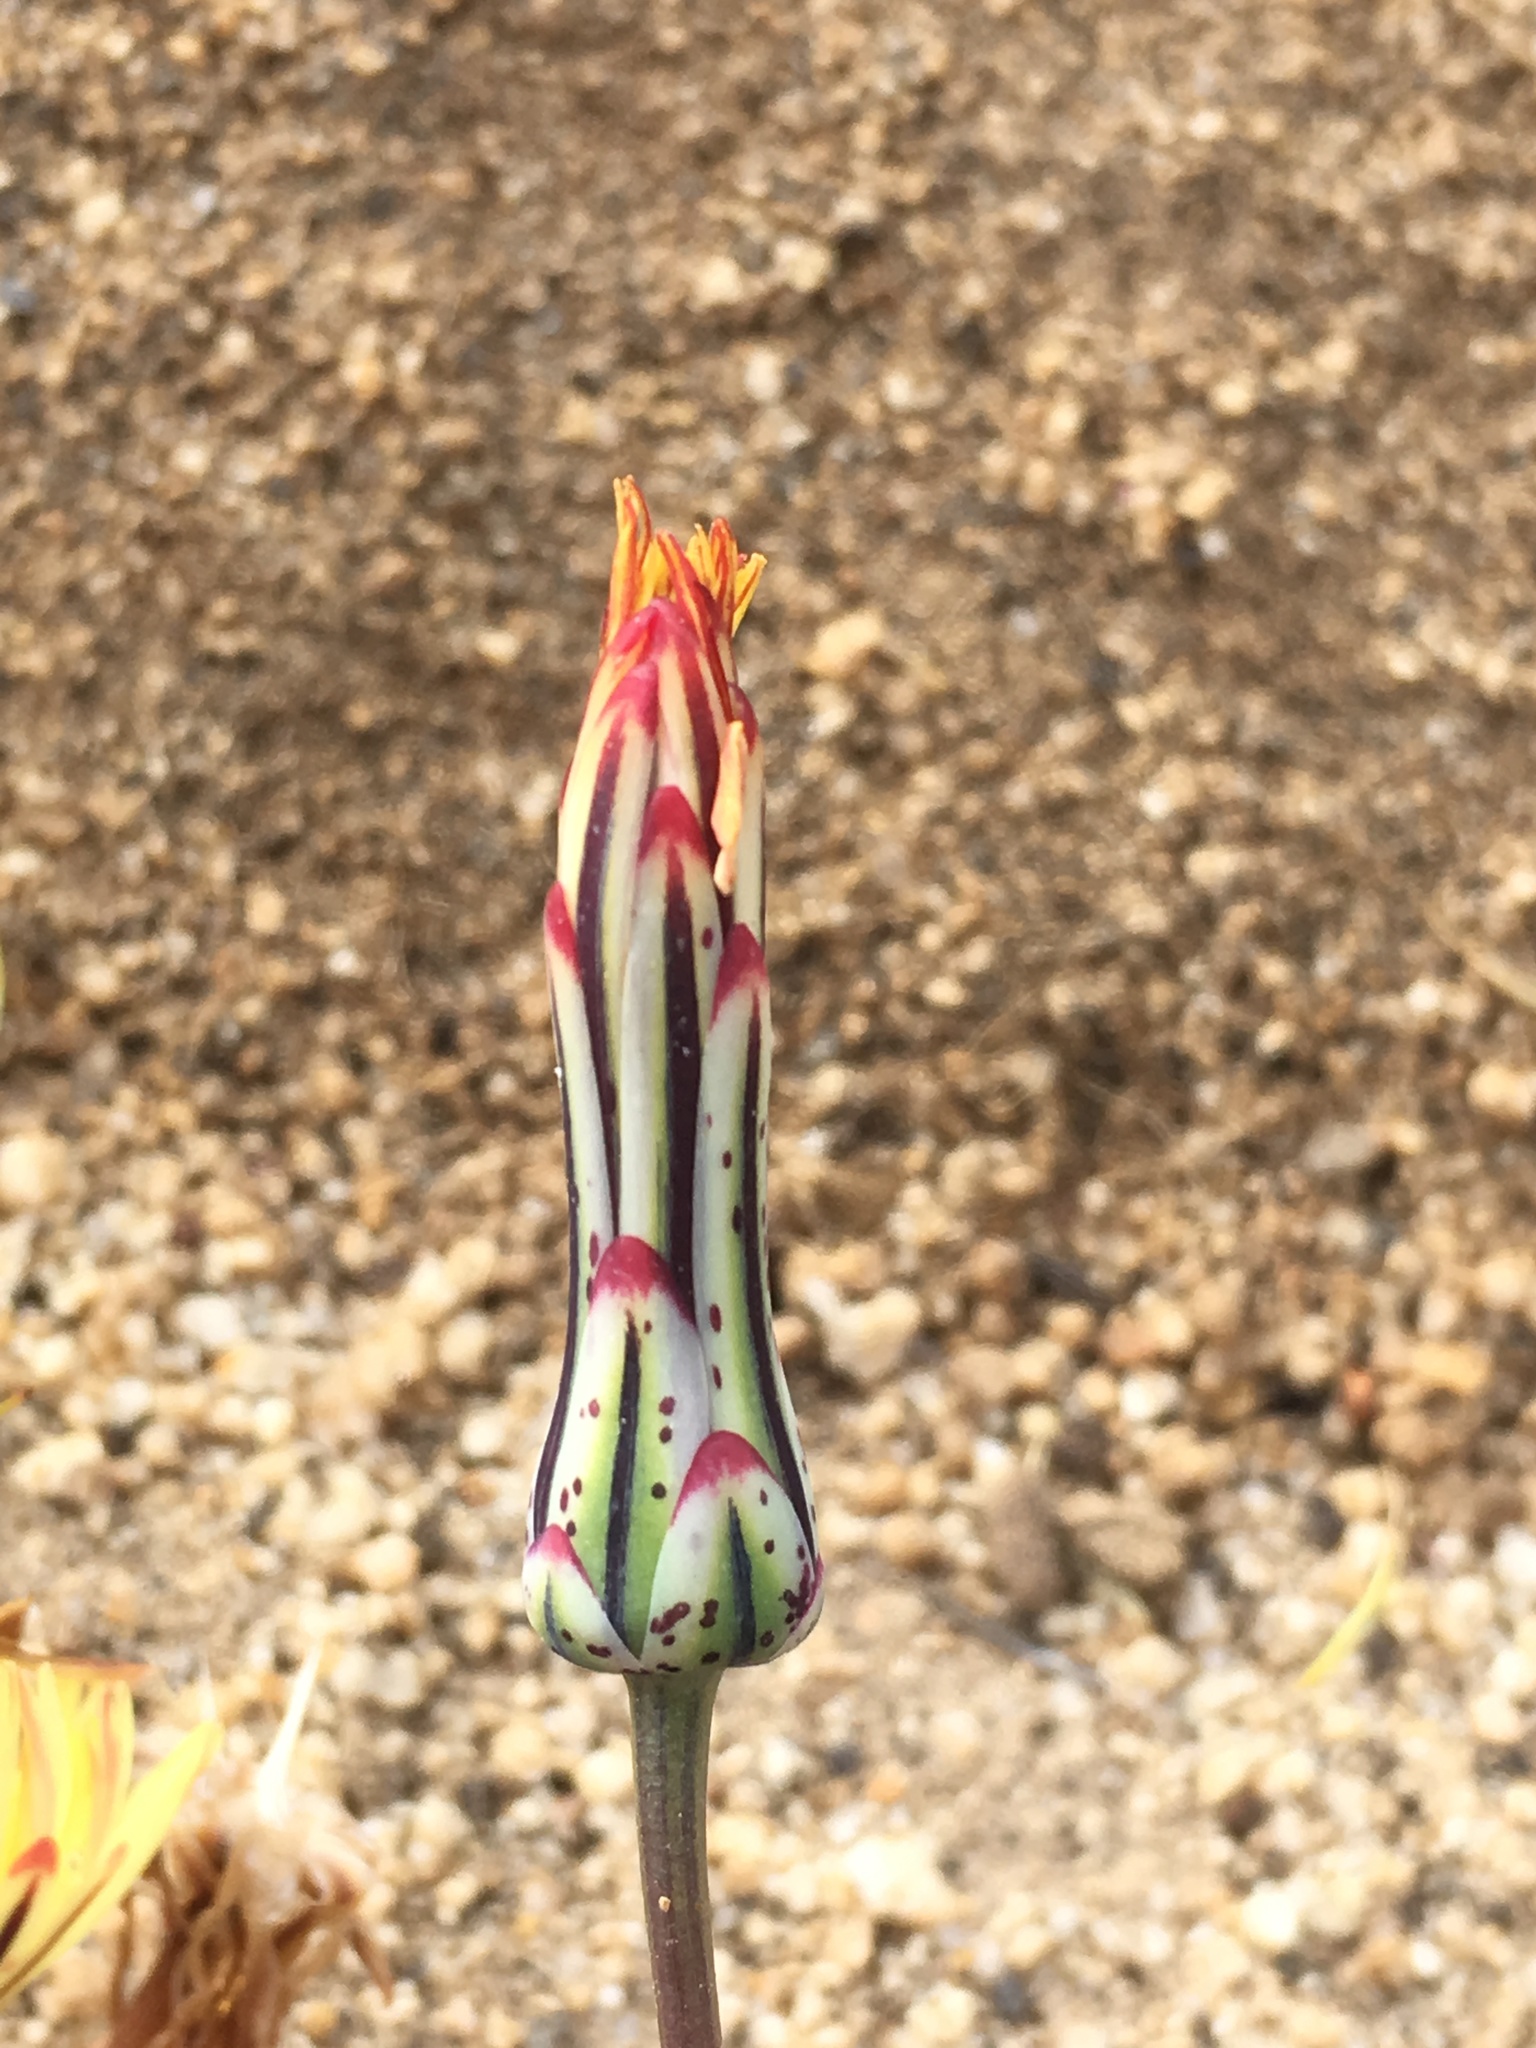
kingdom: Plantae
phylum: Tracheophyta
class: Magnoliopsida
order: Asterales
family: Asteraceae
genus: Anisocoma
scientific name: Anisocoma acaulis
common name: Scalebud
